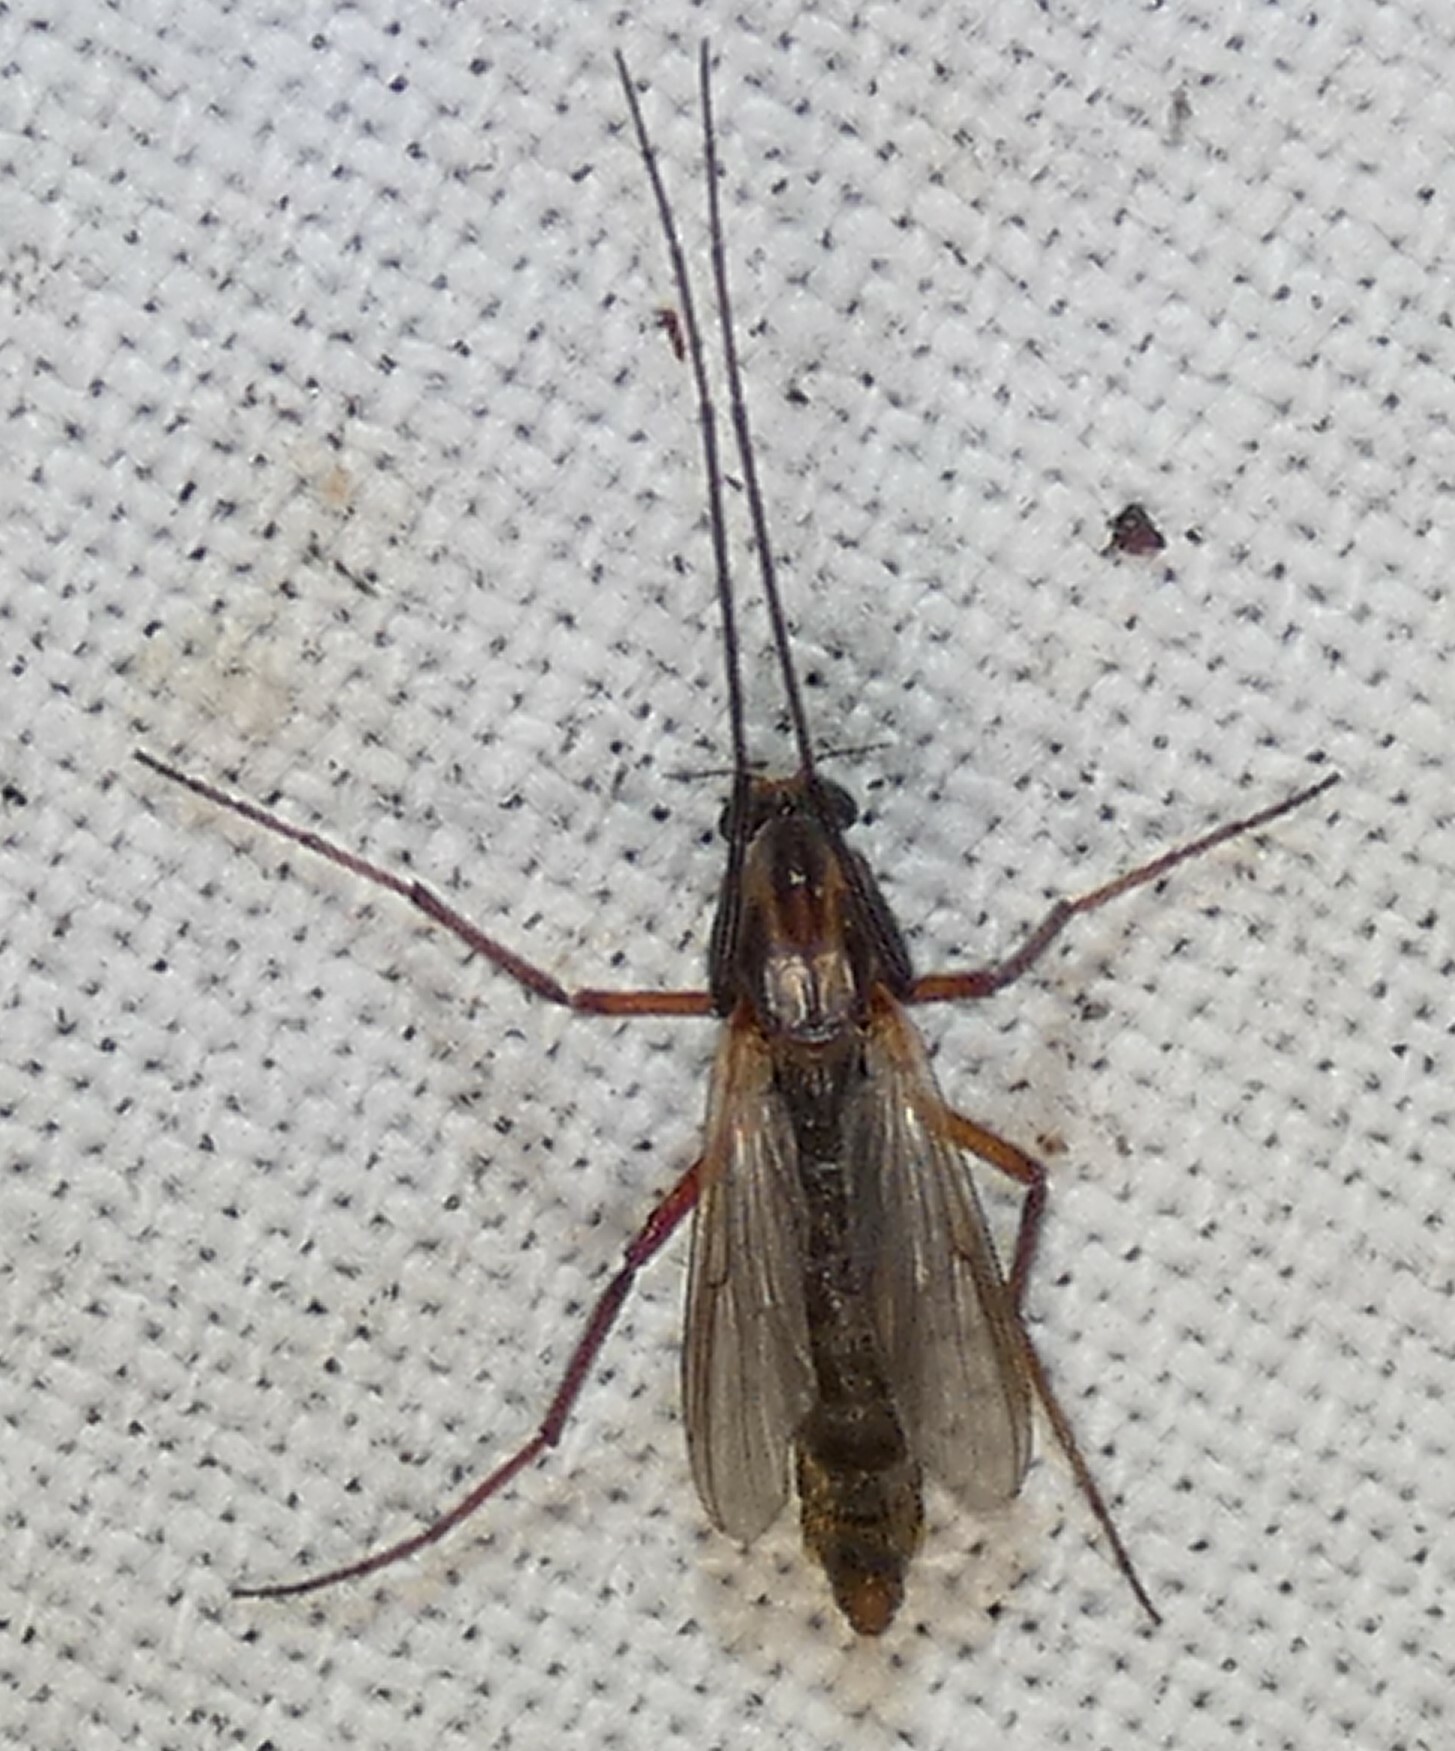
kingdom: Animalia
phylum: Arthropoda
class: Insecta
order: Diptera
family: Chironomidae
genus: Glyptotendipes
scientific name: Glyptotendipes testaceus
